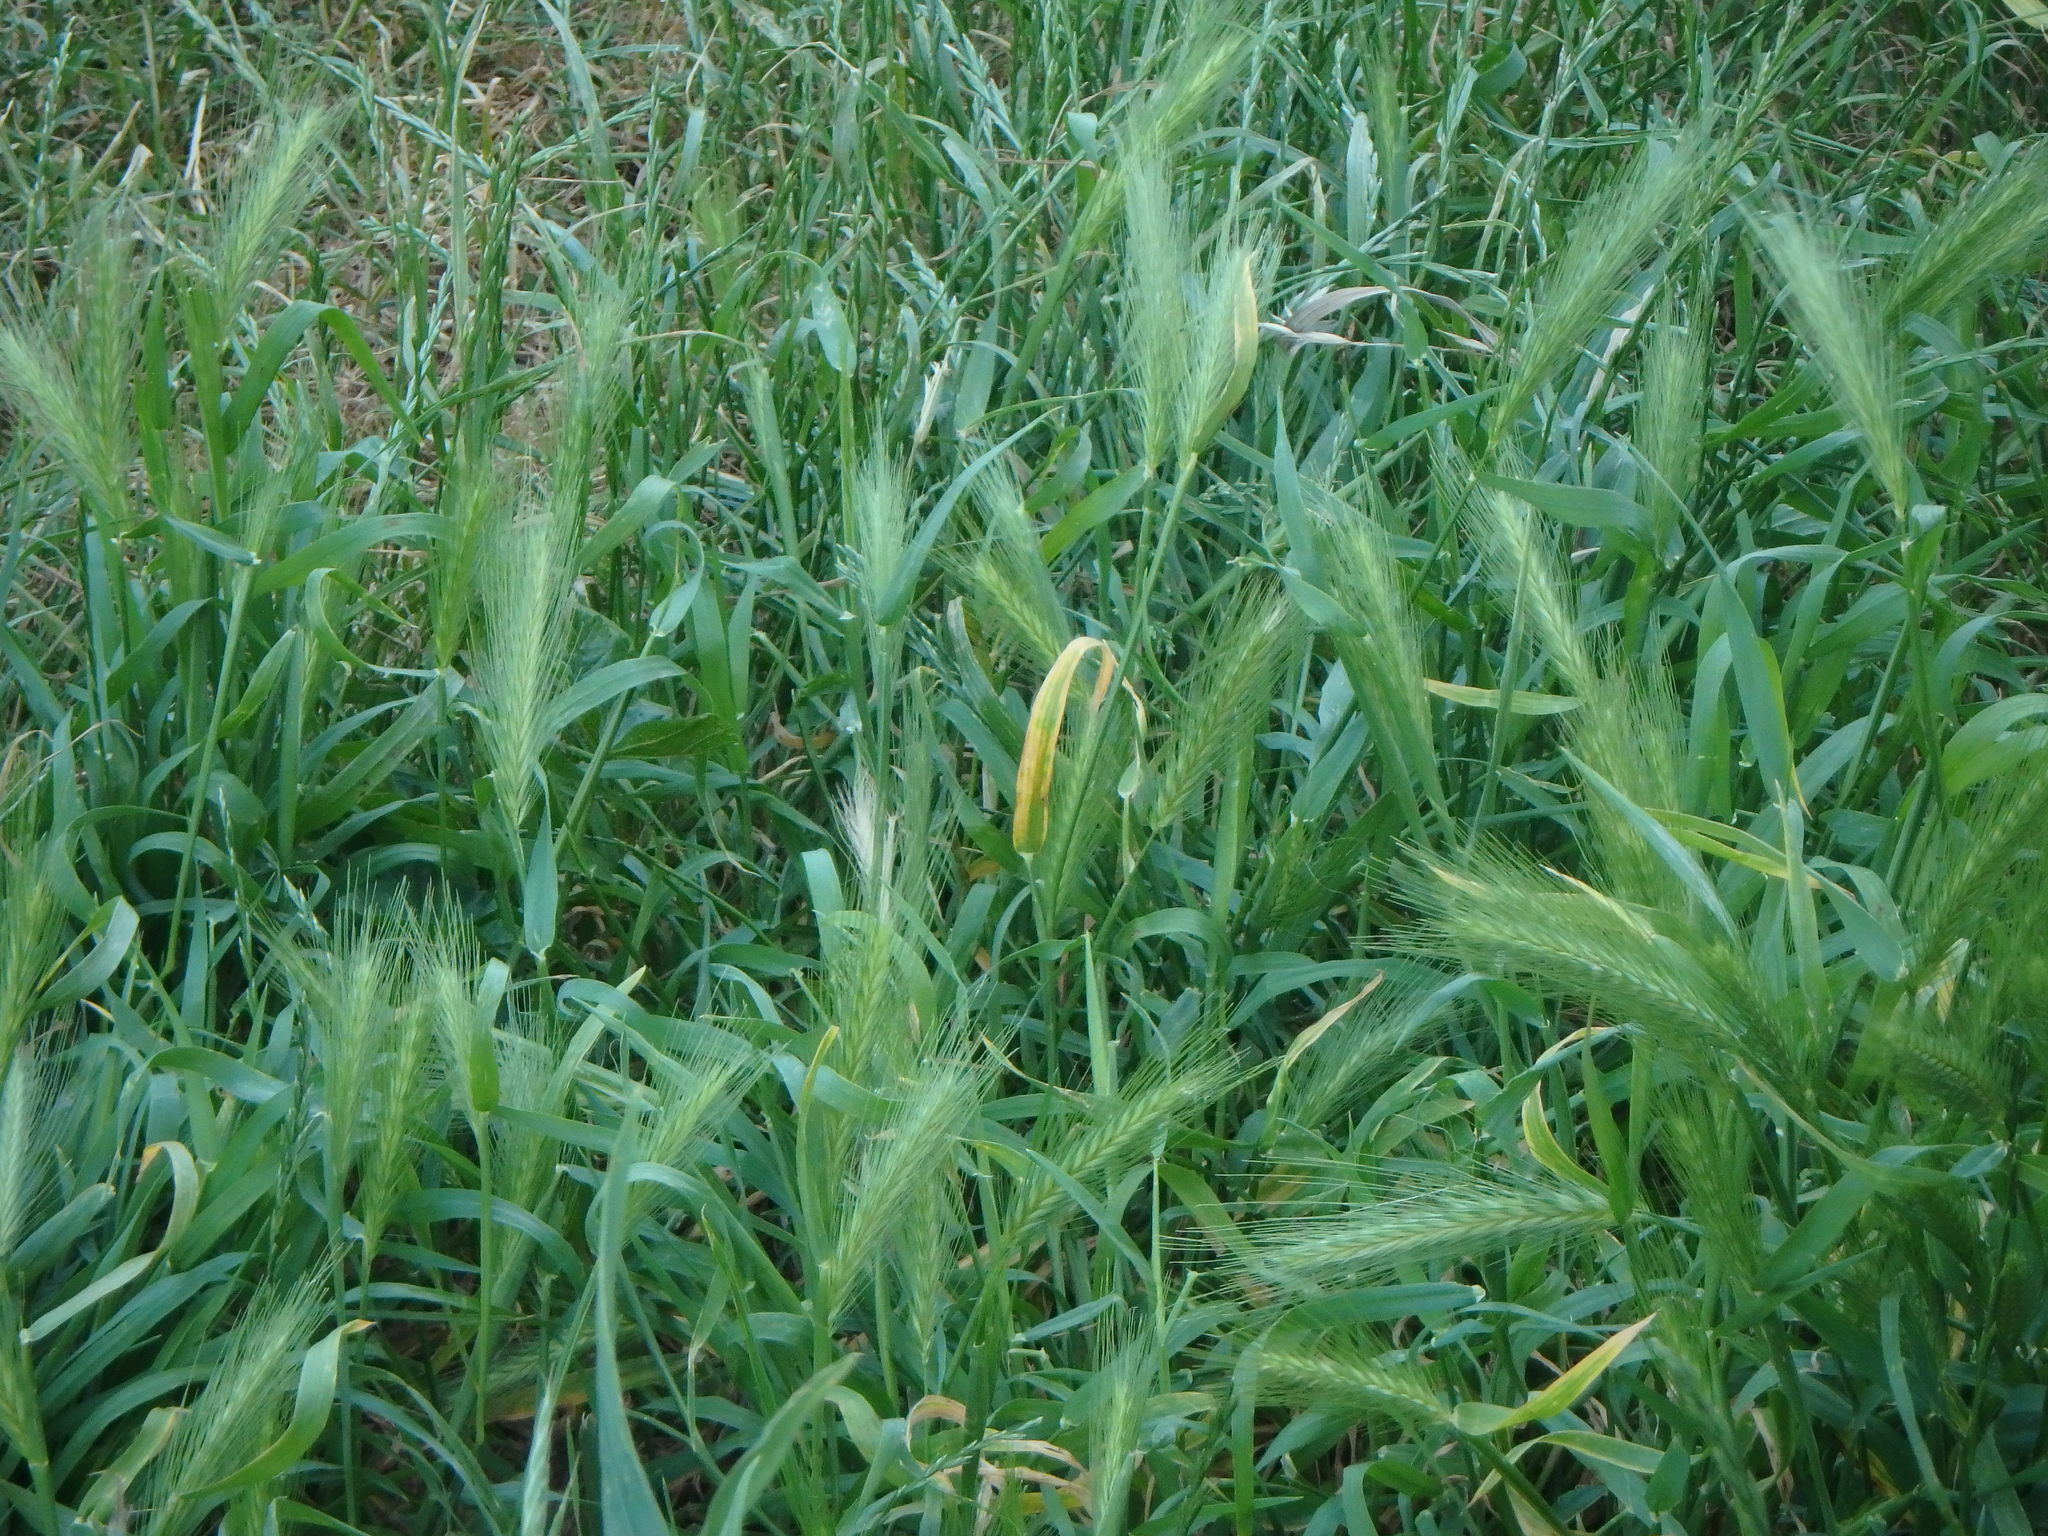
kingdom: Plantae
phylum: Tracheophyta
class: Liliopsida
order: Poales
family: Poaceae
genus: Hordeum
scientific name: Hordeum murinum
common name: Wall barley
